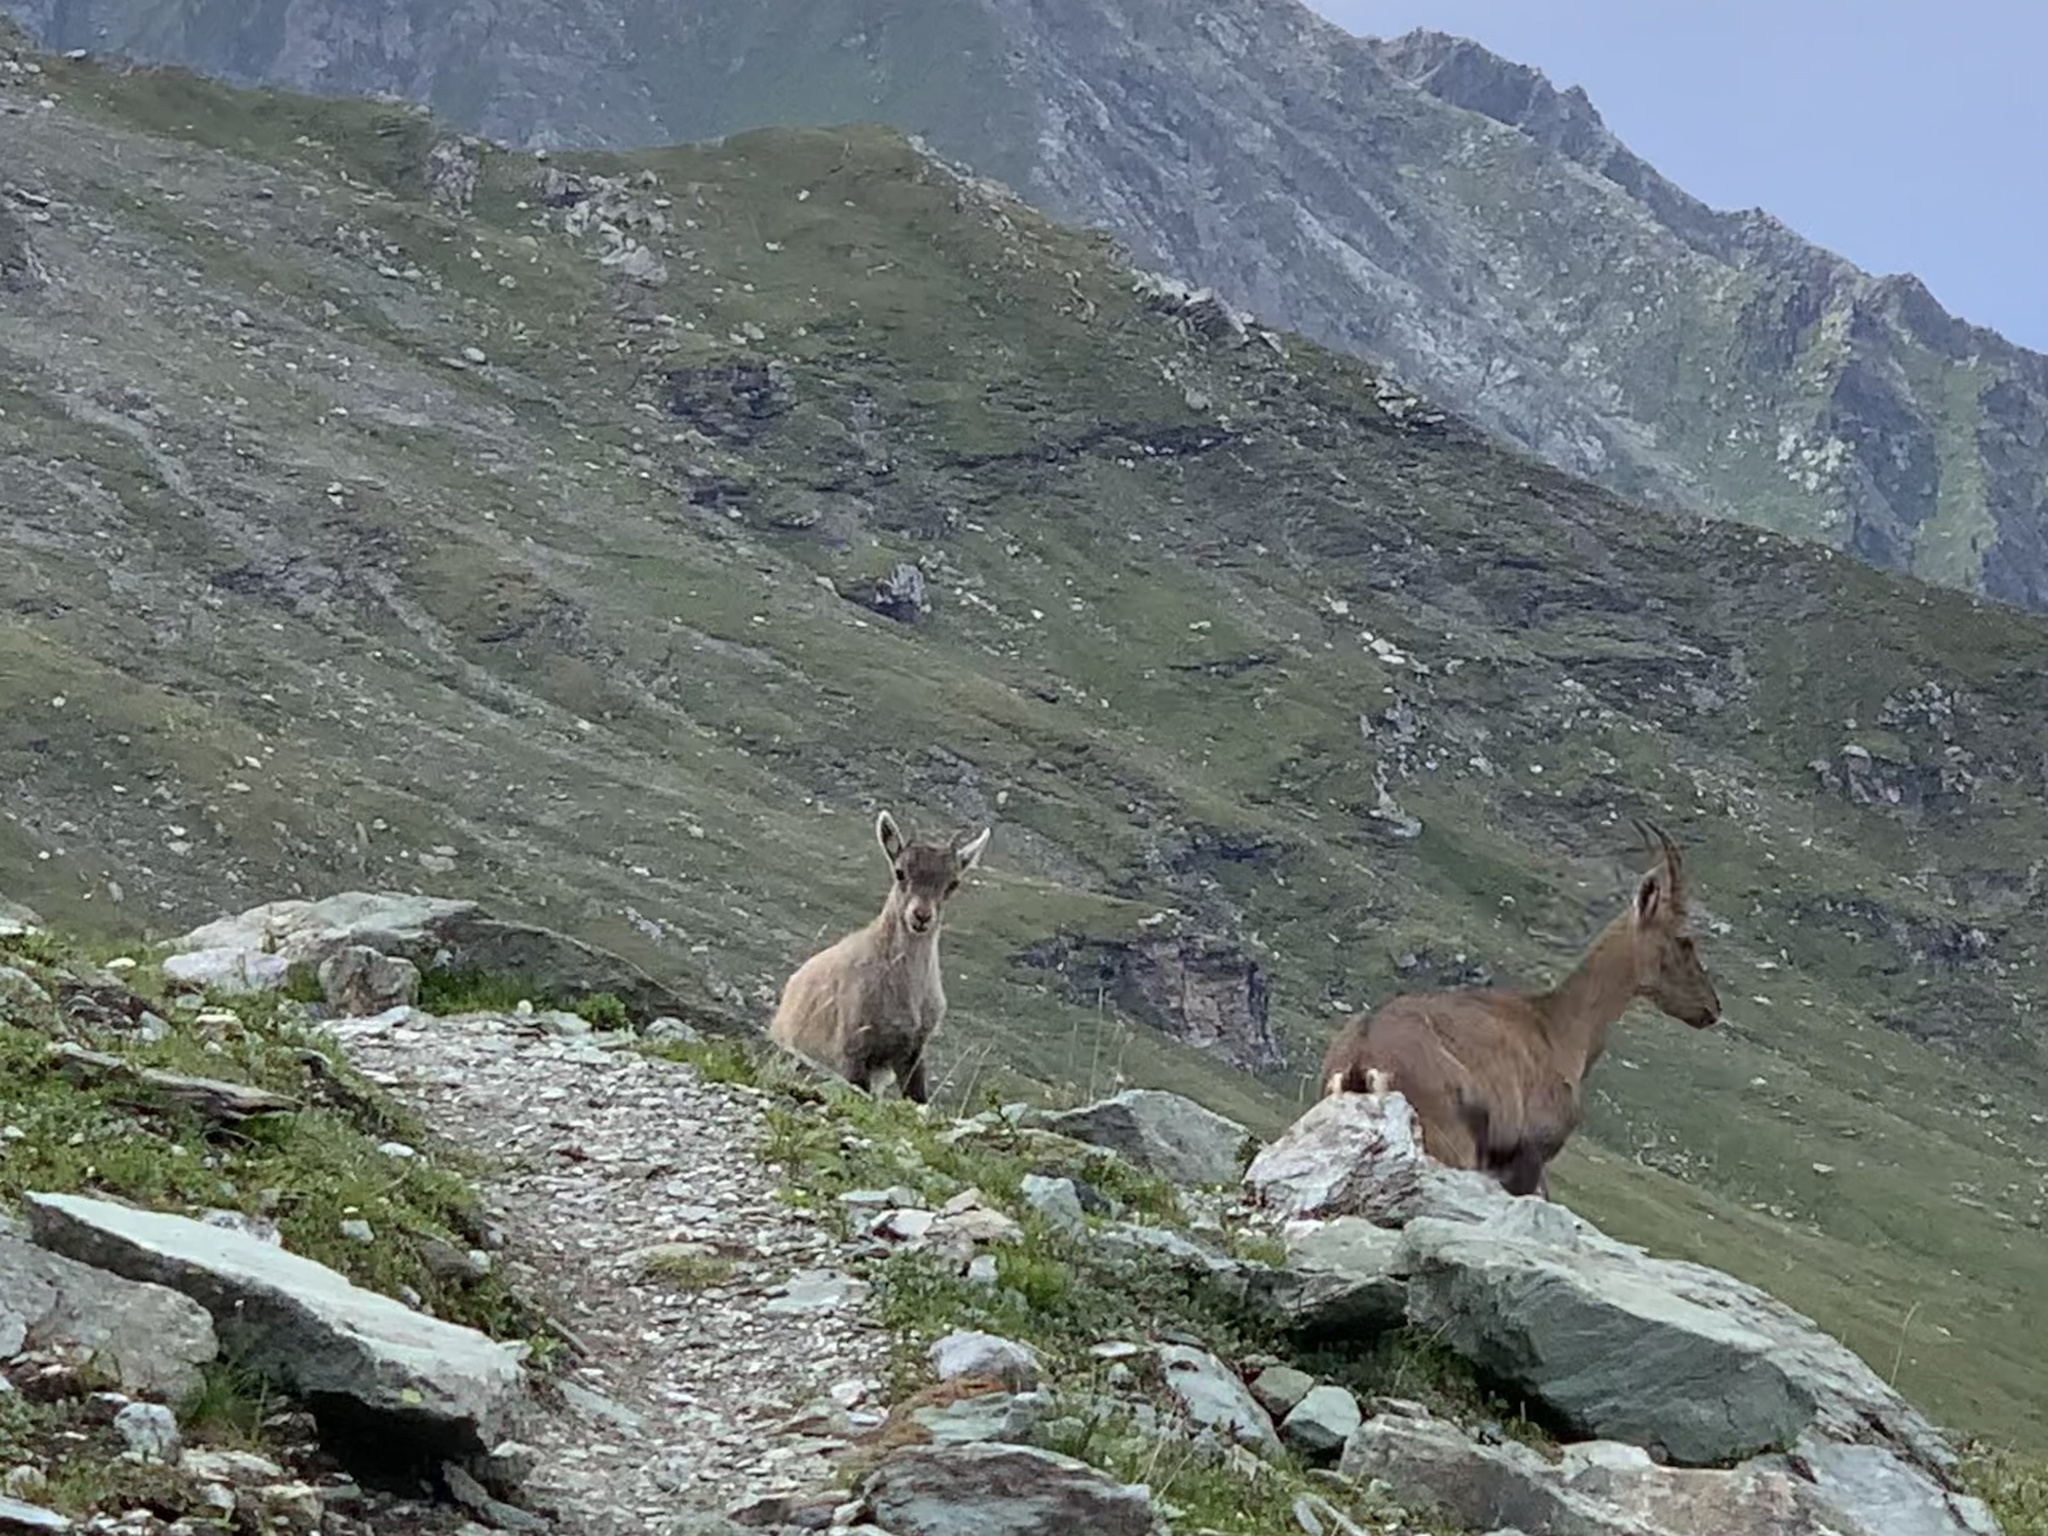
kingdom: Animalia
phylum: Chordata
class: Mammalia
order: Artiodactyla
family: Bovidae
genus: Capra
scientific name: Capra ibex
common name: Alpine ibex
